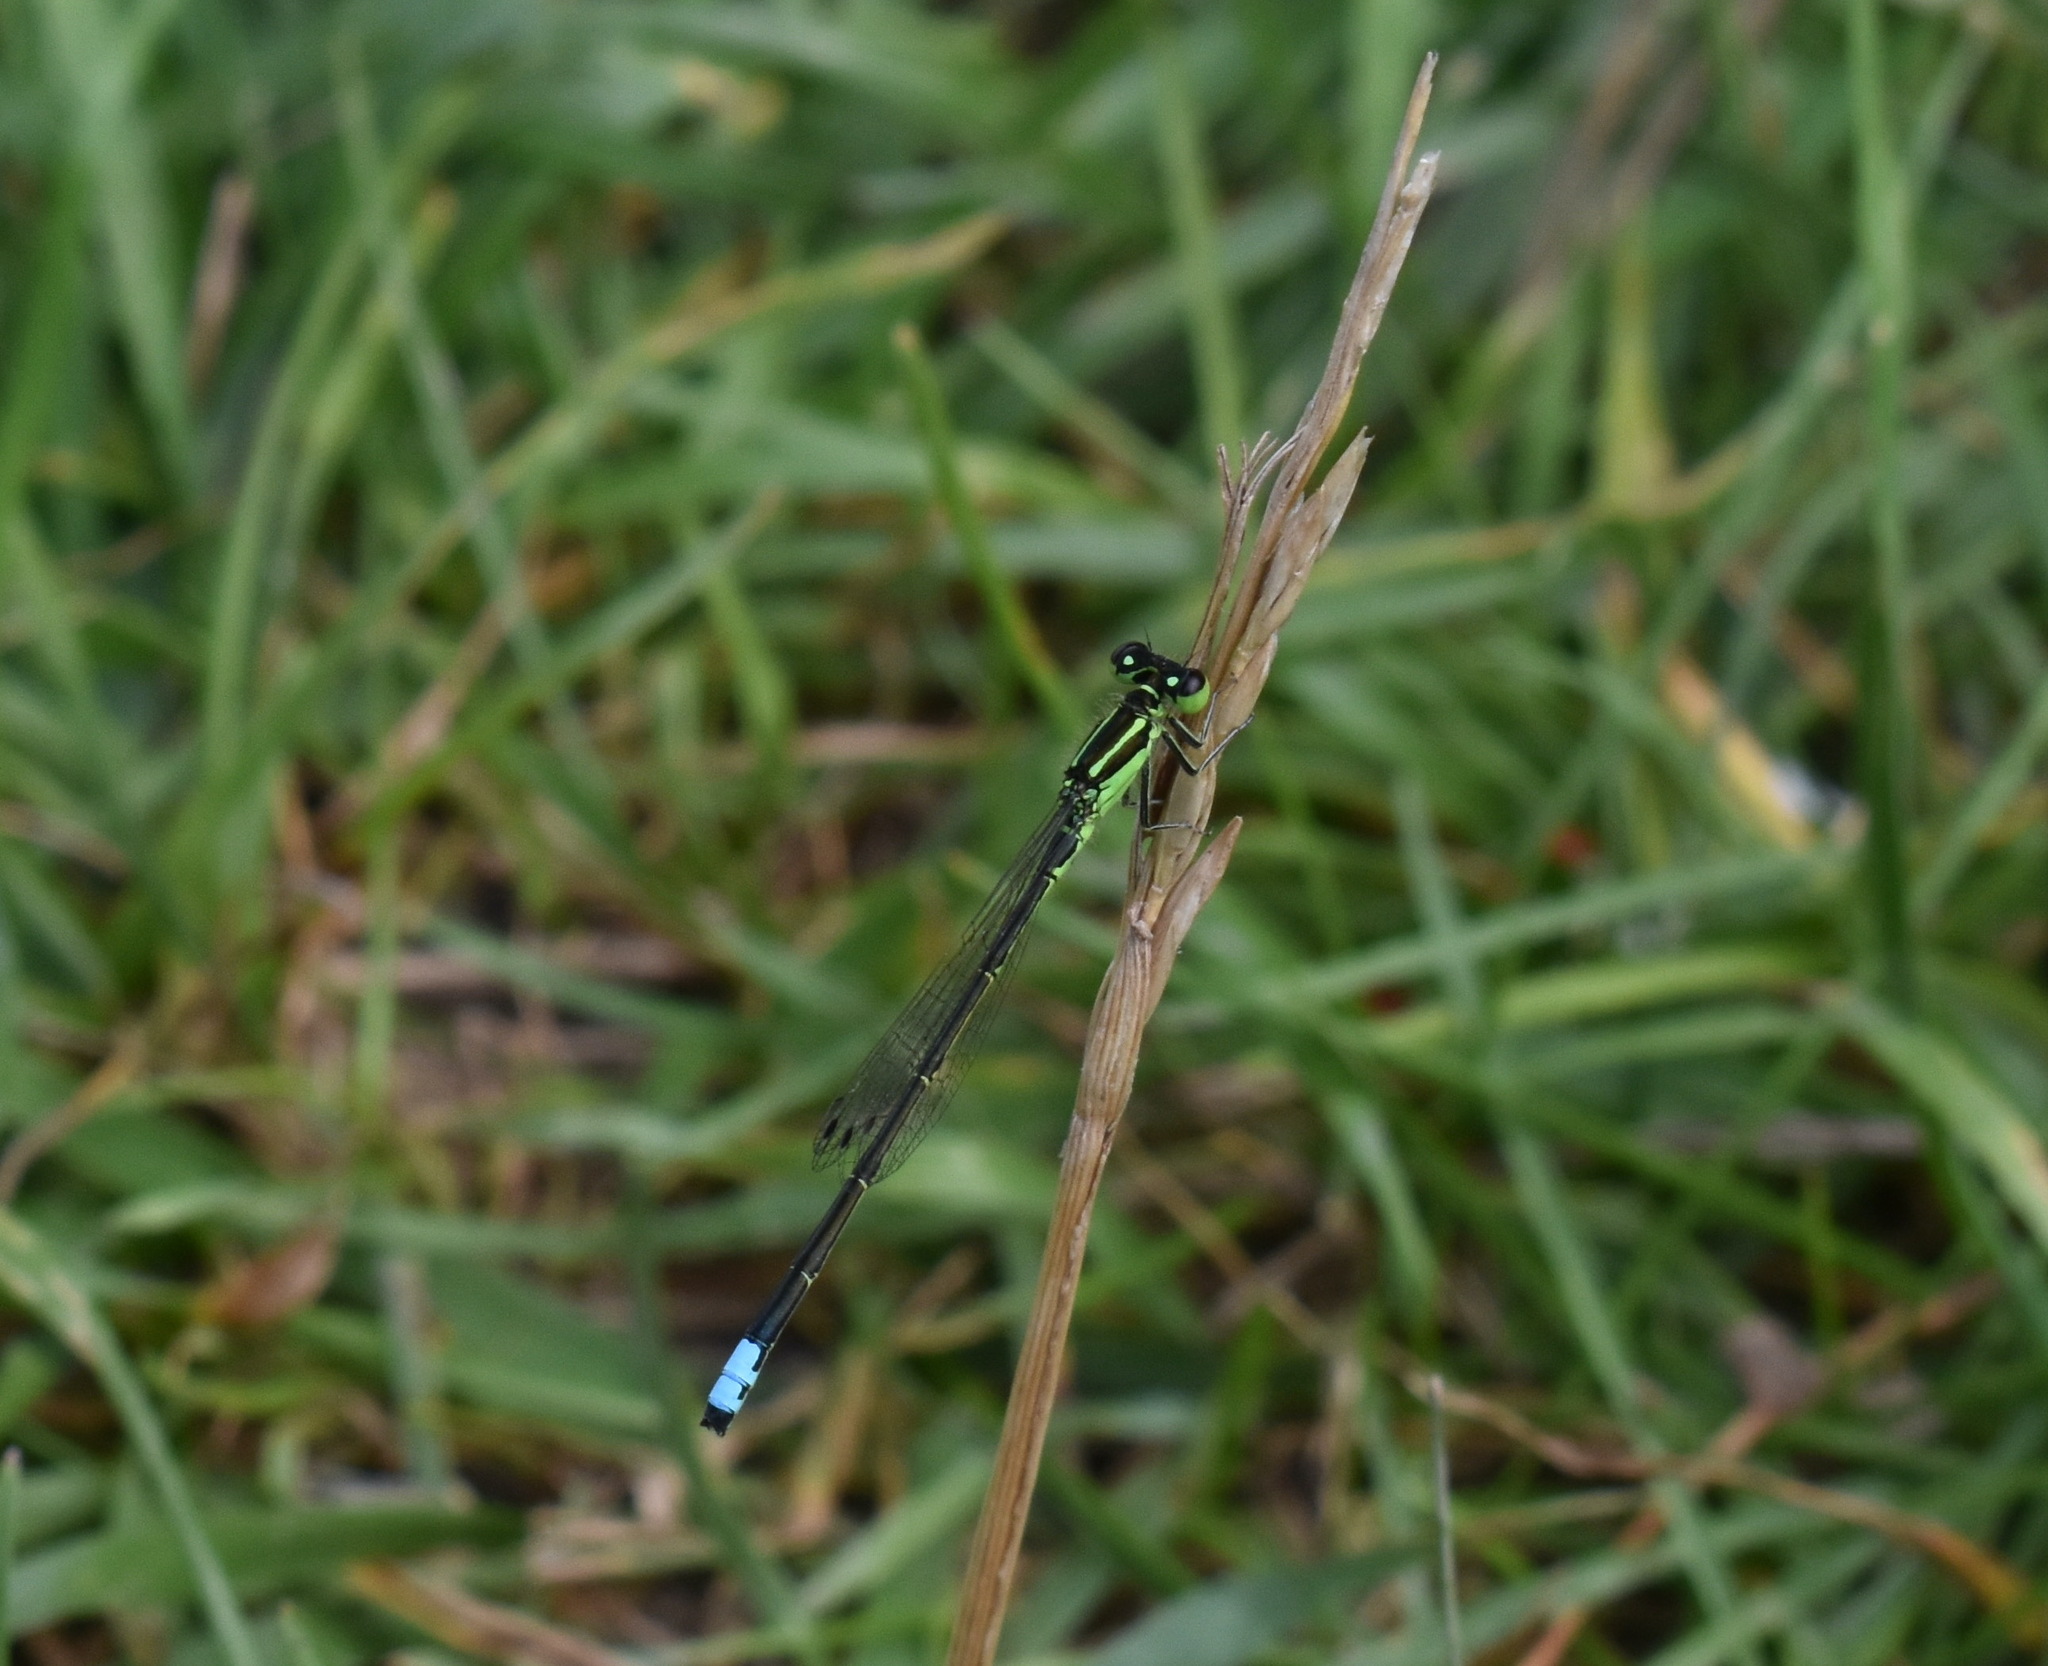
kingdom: Animalia
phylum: Arthropoda
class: Insecta
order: Odonata
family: Coenagrionidae
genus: Ischnura
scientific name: Ischnura verticalis
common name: Eastern forktail
